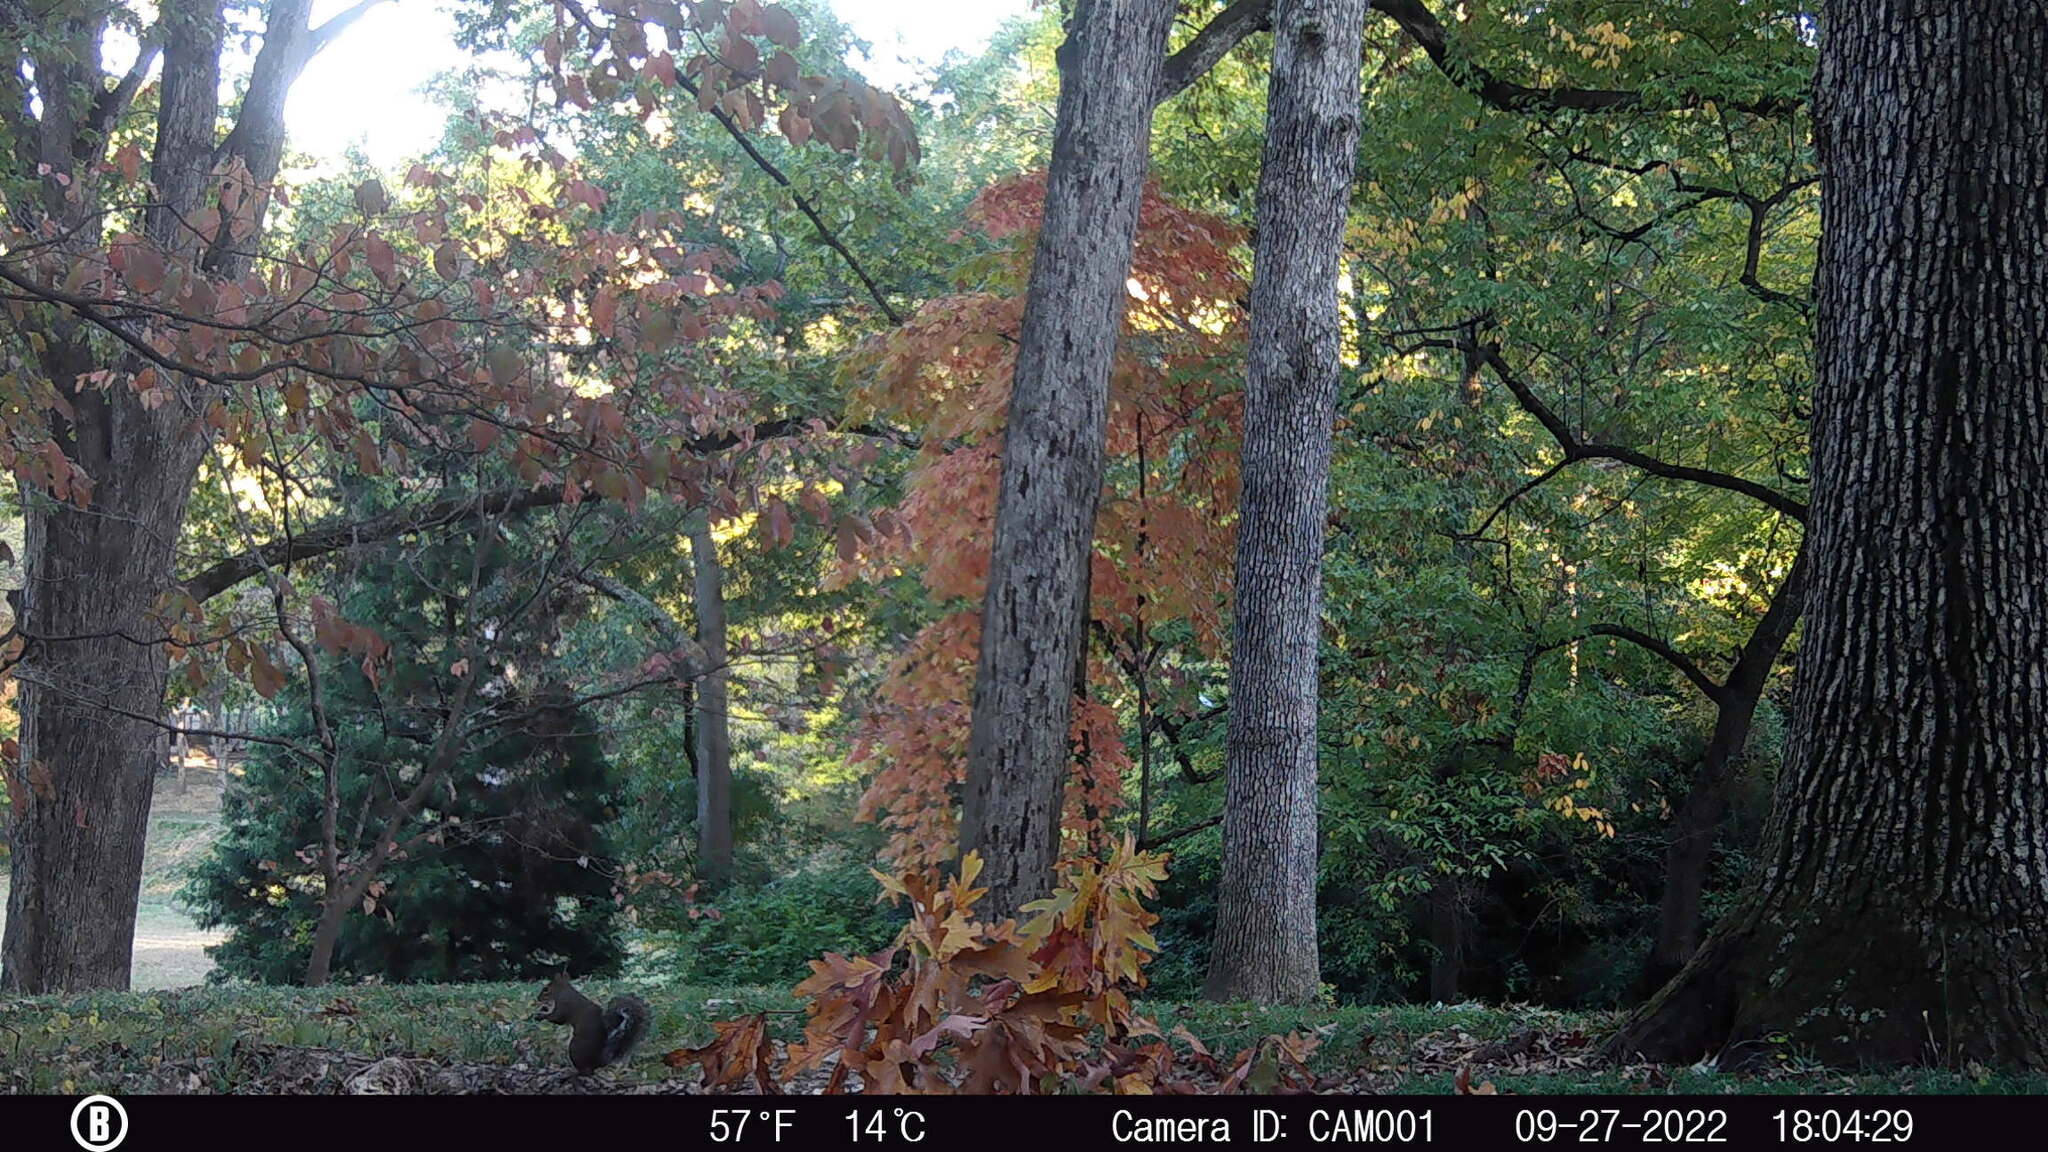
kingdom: Animalia
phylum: Chordata
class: Mammalia
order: Rodentia
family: Sciuridae
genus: Sciurus
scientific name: Sciurus carolinensis
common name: Eastern gray squirrel
